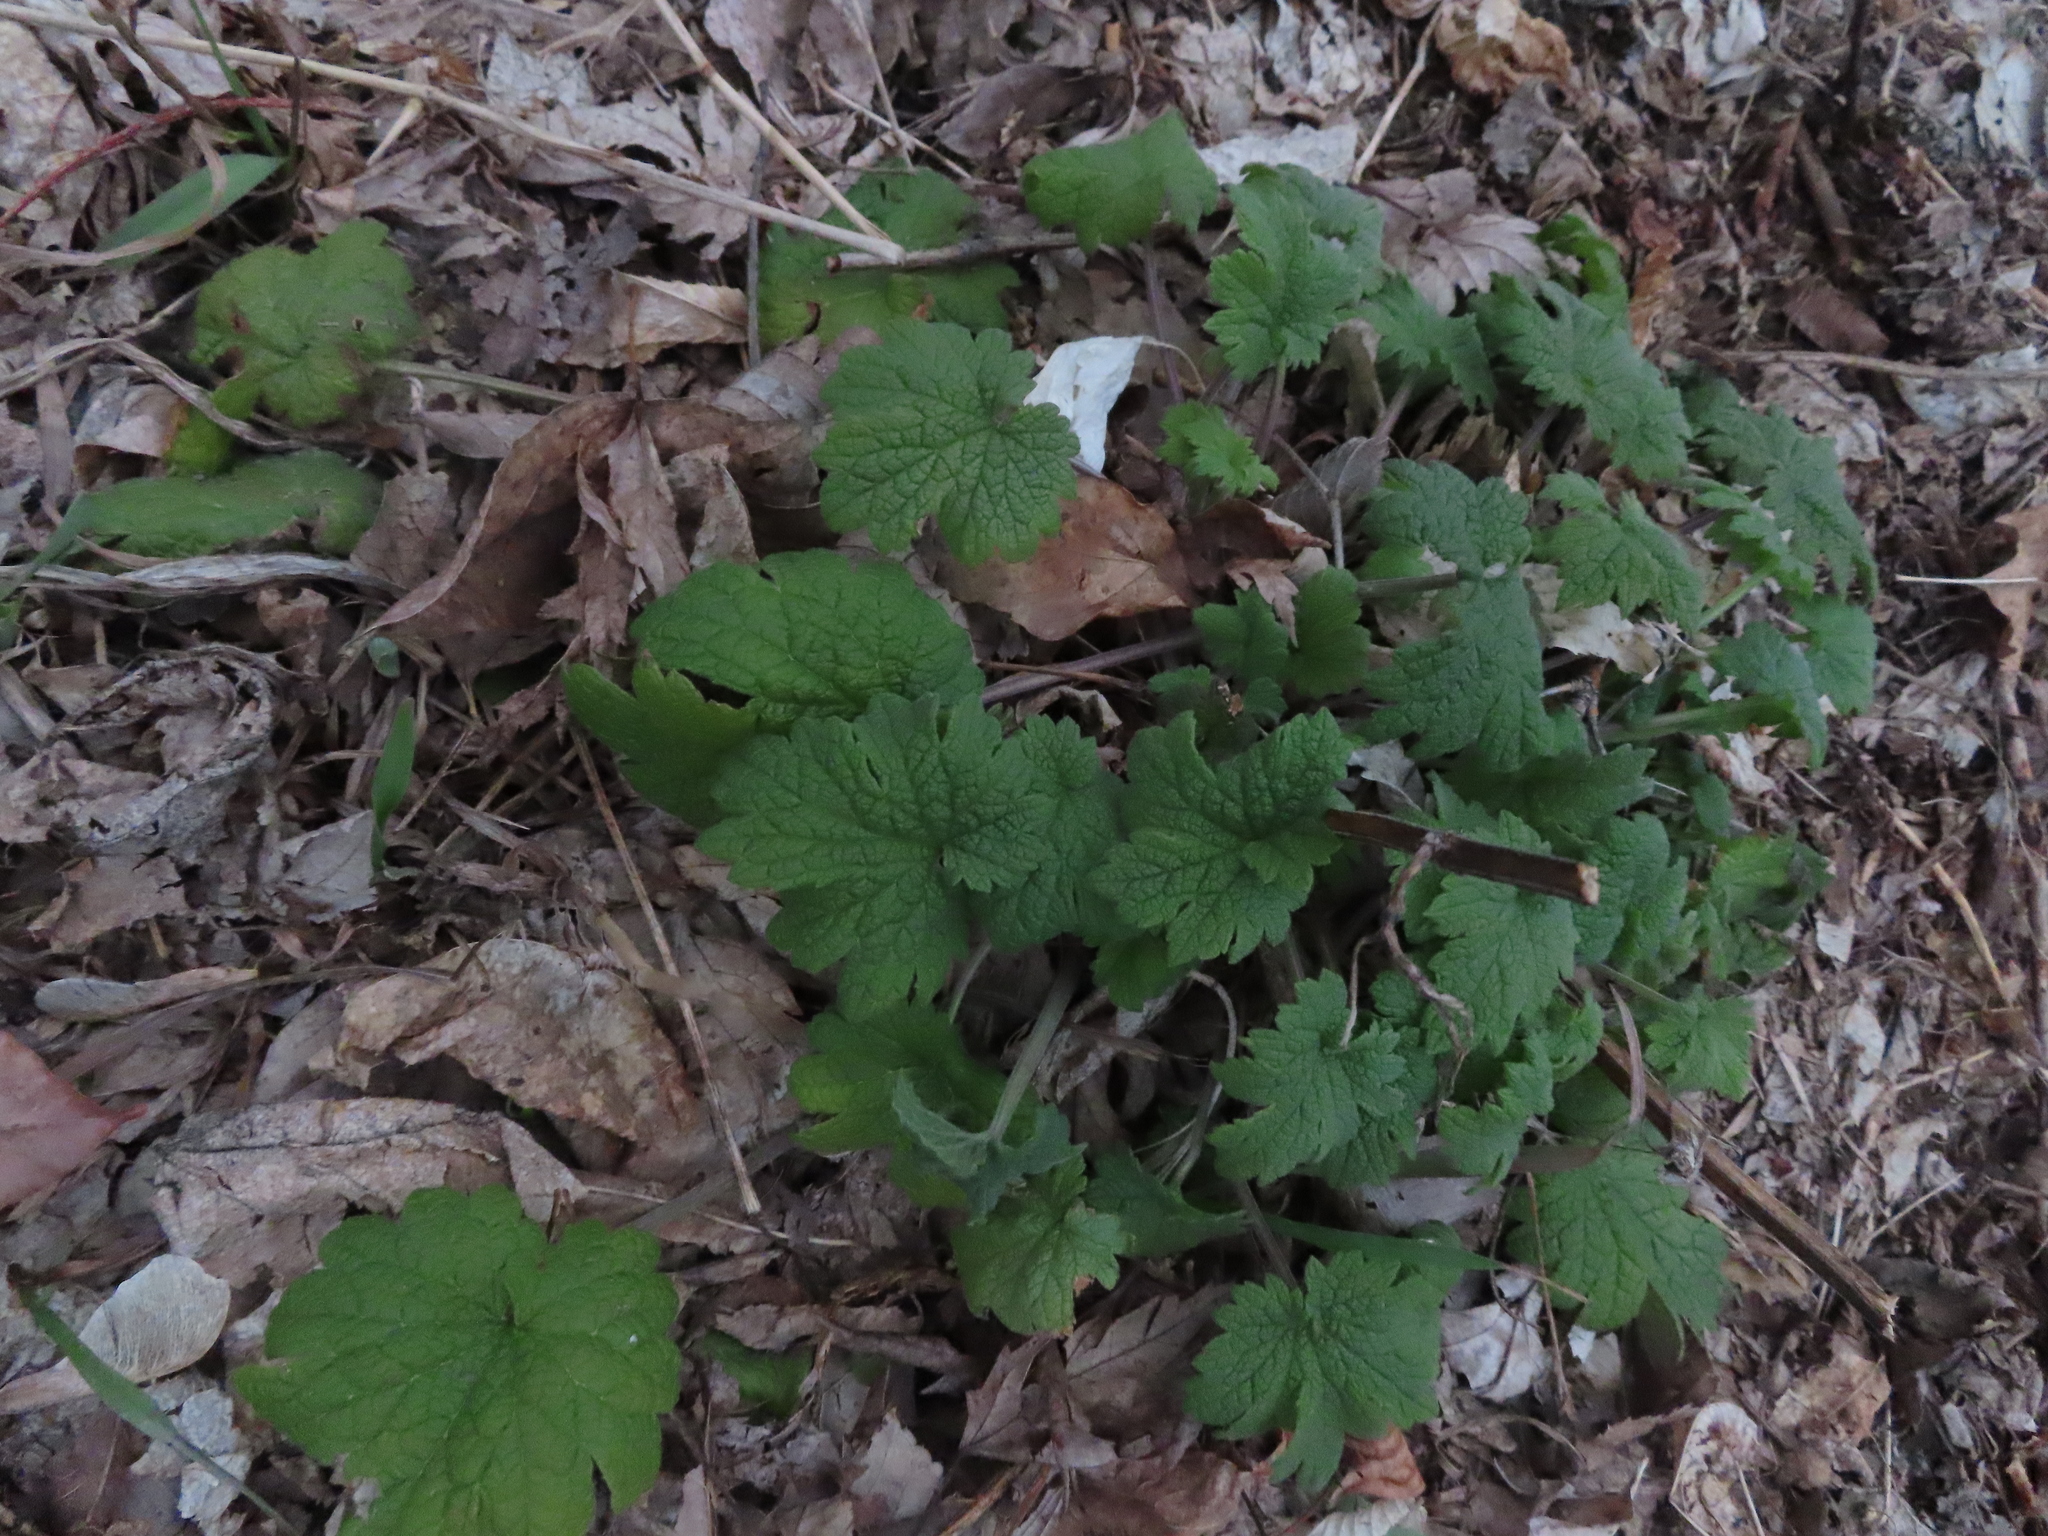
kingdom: Plantae
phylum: Tracheophyta
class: Magnoliopsida
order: Lamiales
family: Lamiaceae
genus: Leonurus
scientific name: Leonurus cardiaca
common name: Motherwort
